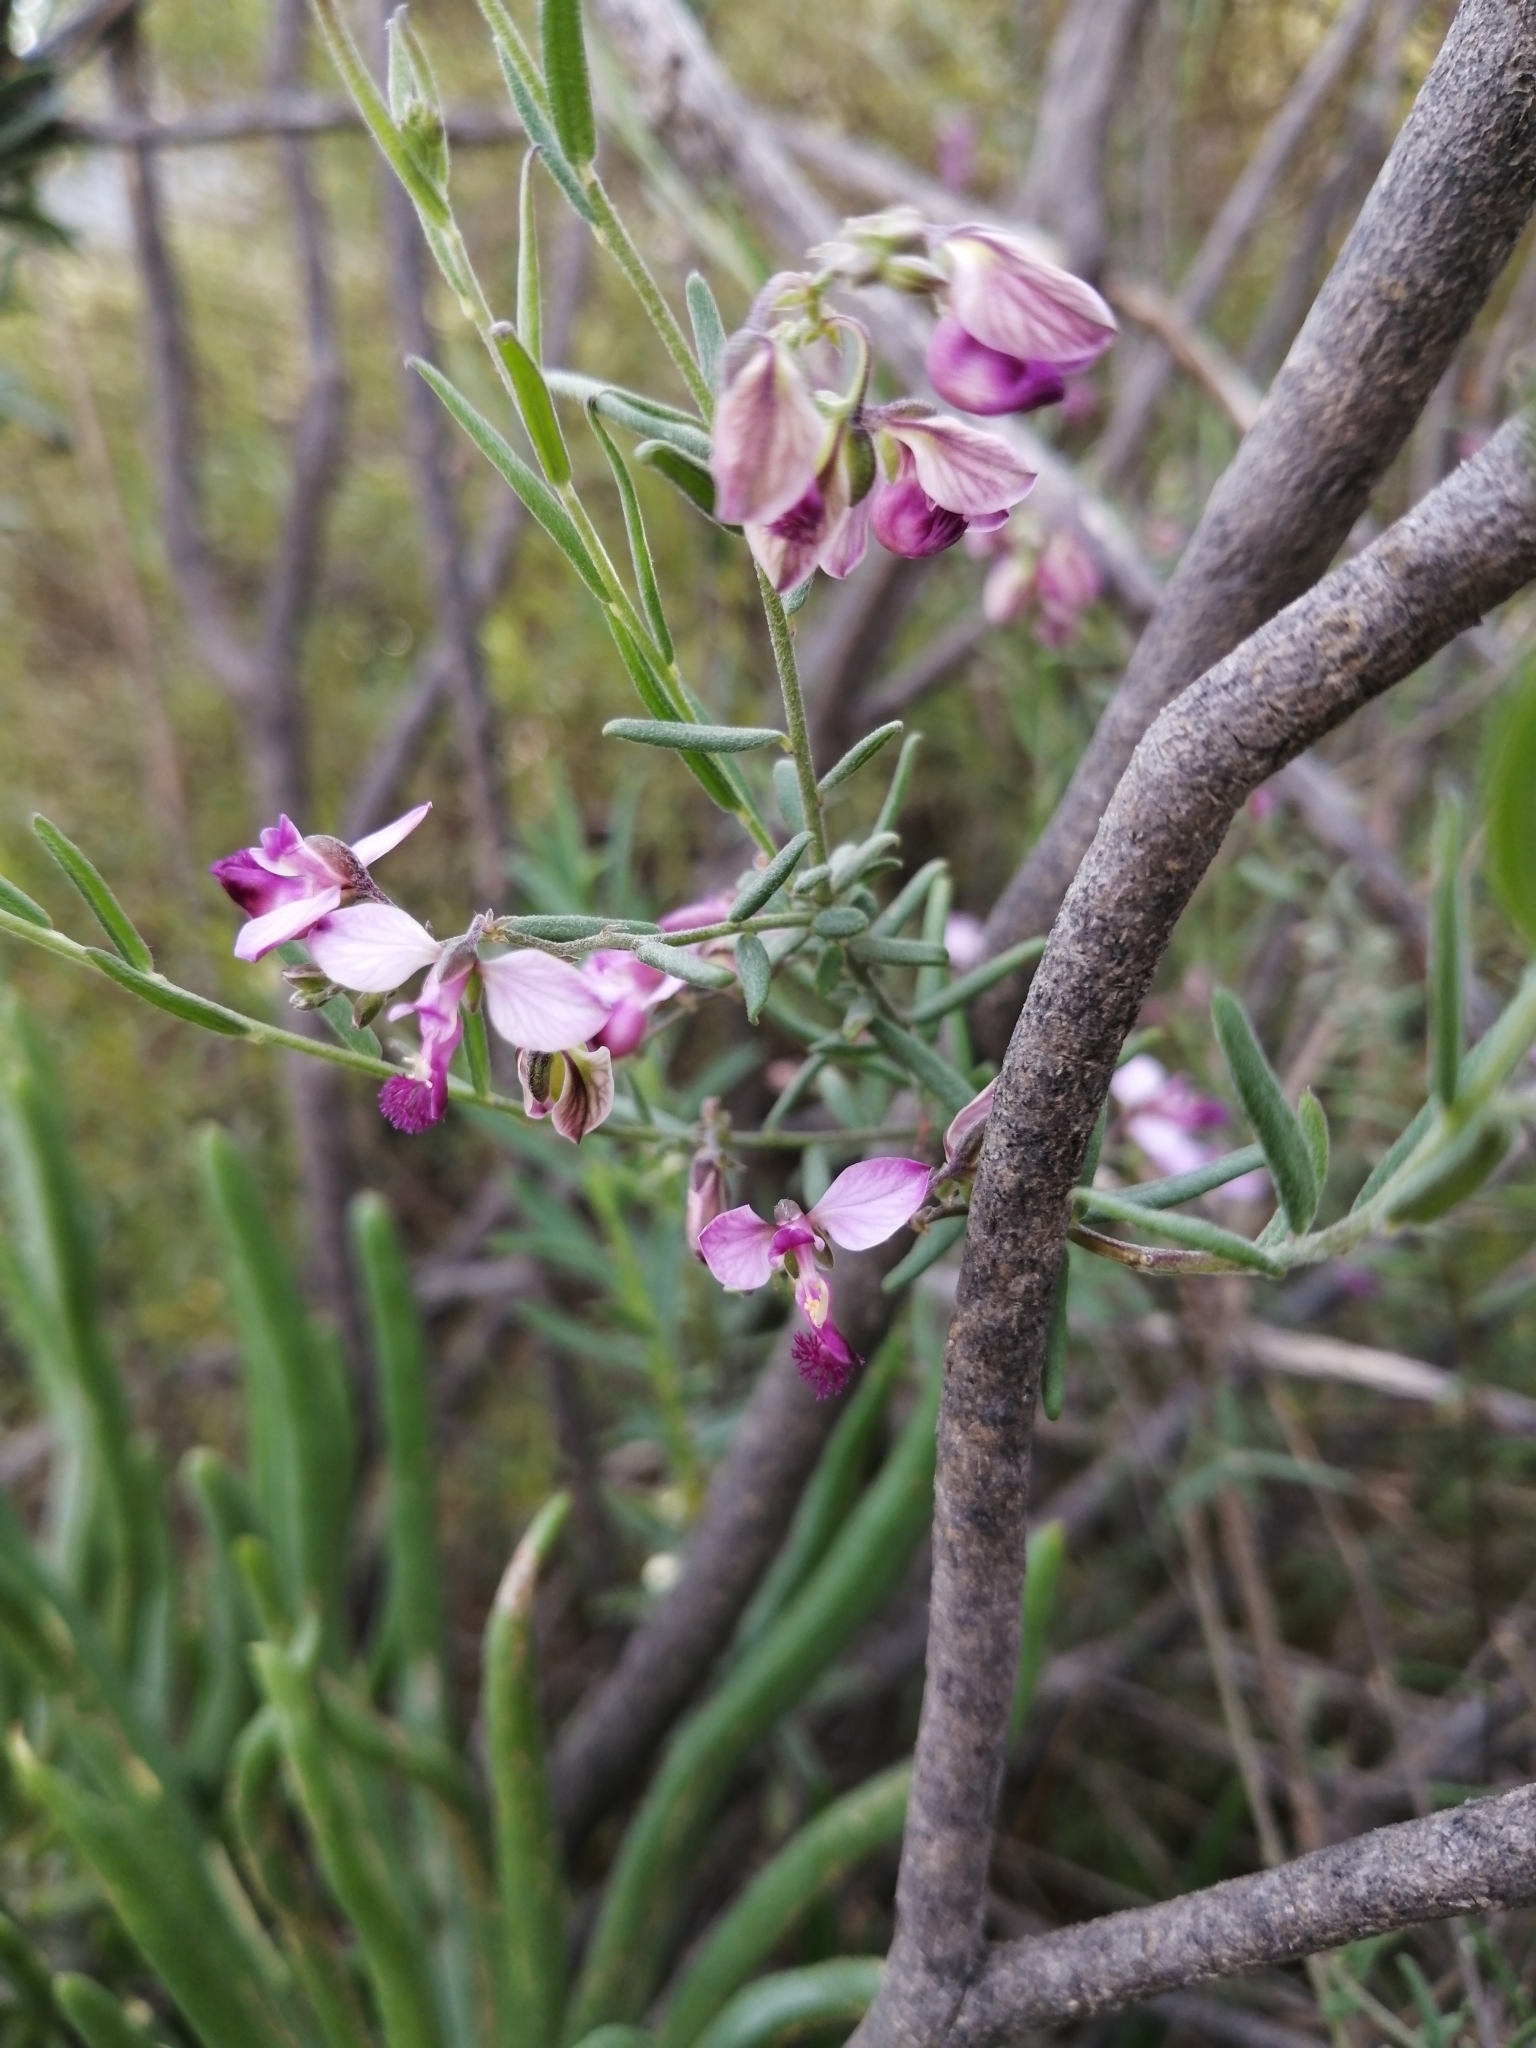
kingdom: Plantae
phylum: Tracheophyta
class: Magnoliopsida
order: Fabales
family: Polygalaceae
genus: Polygala
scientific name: Polygala scabra
